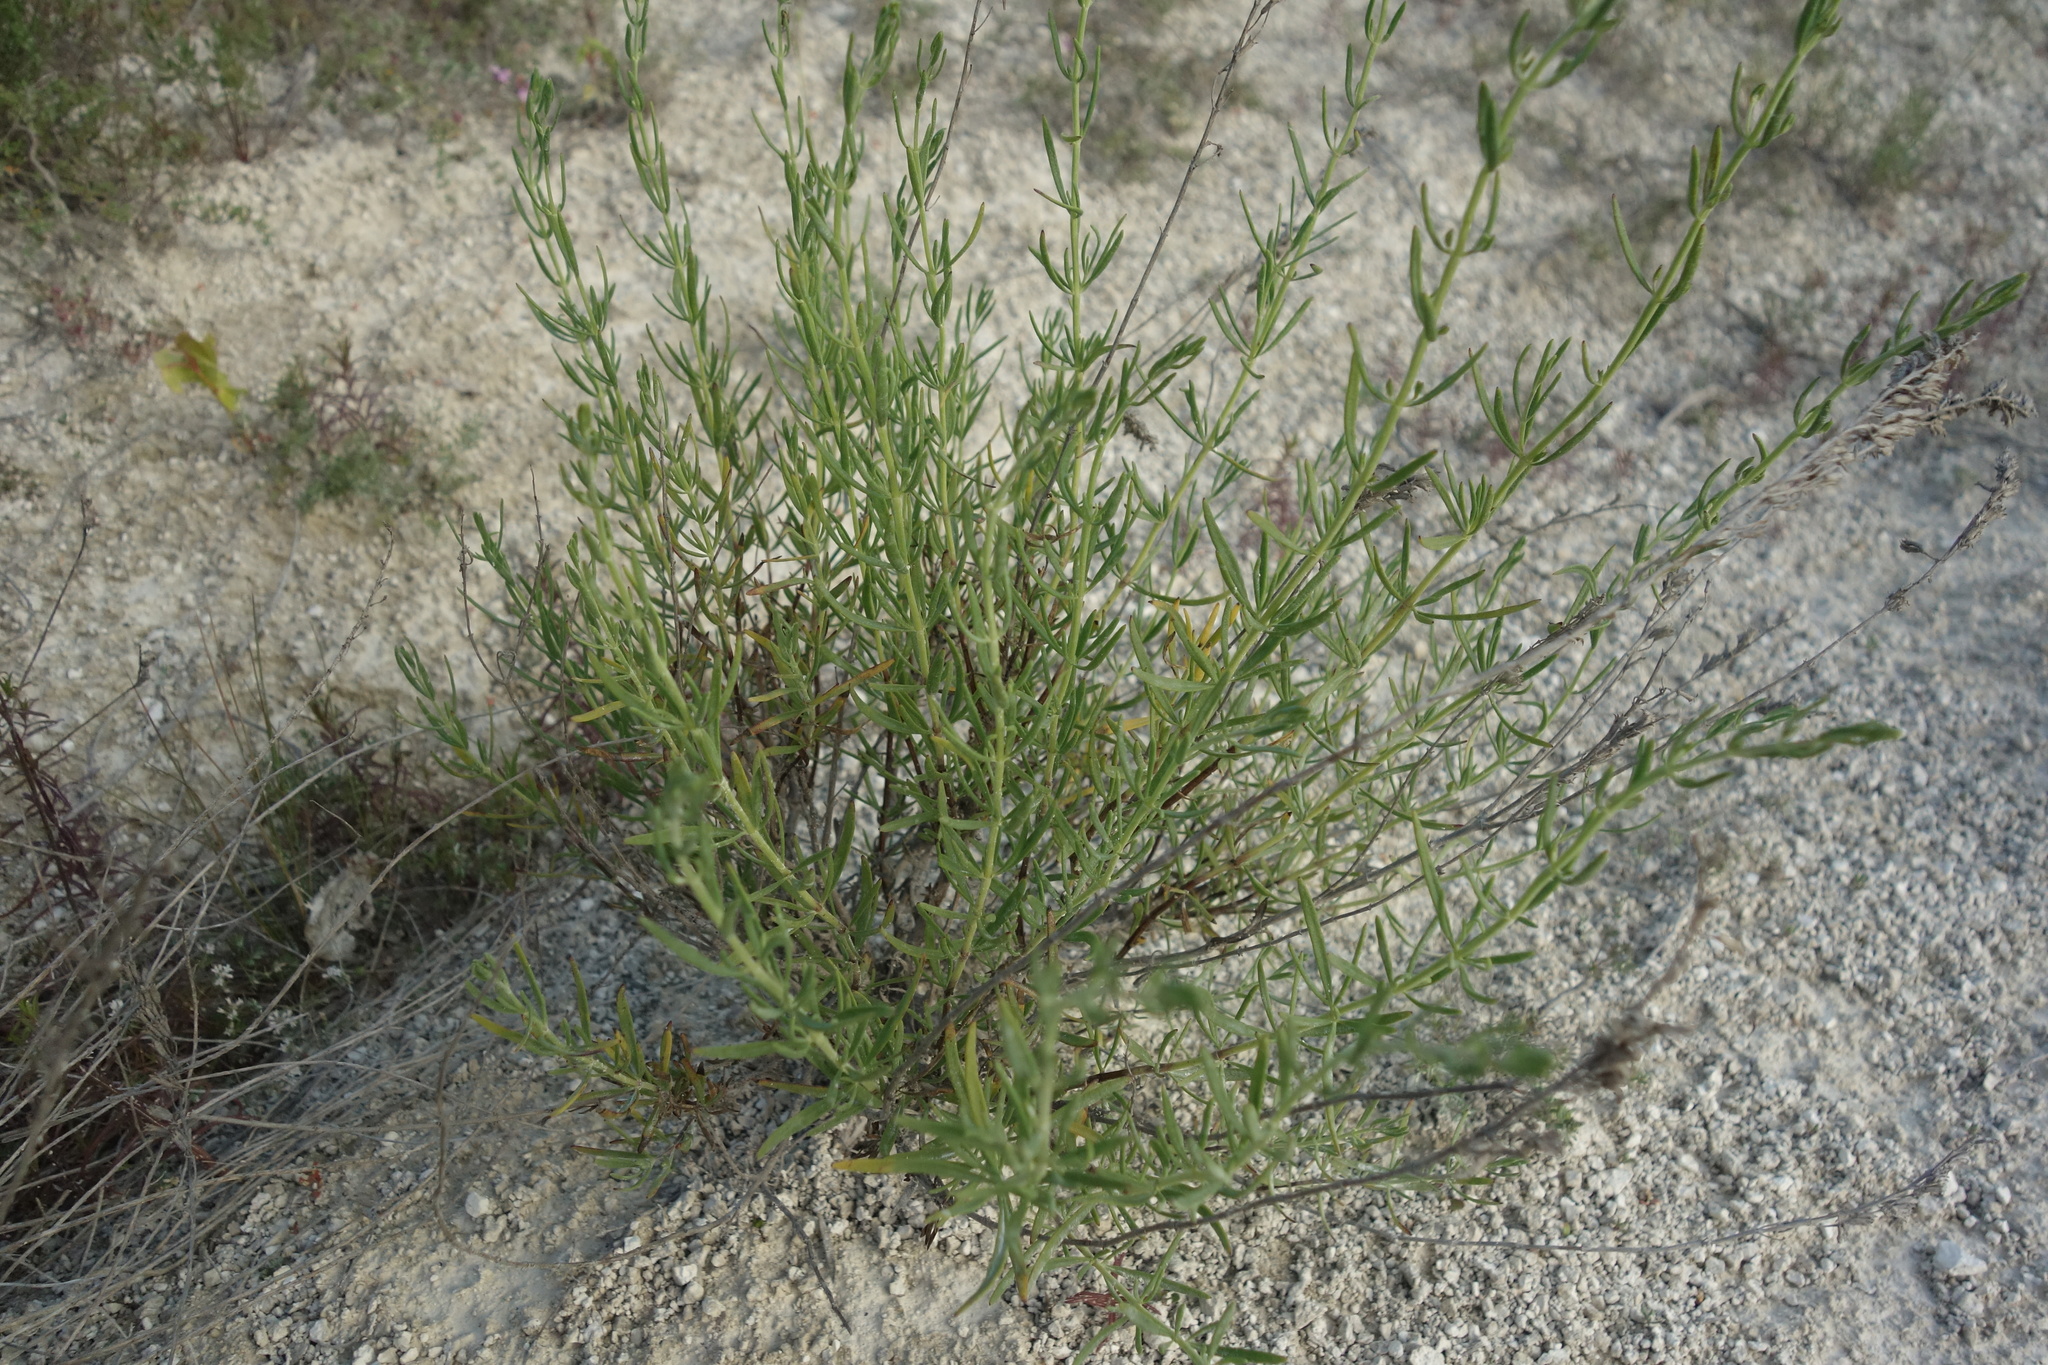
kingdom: Plantae
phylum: Tracheophyta
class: Magnoliopsida
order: Lamiales
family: Lamiaceae
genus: Hyssopus
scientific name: Hyssopus officinalis
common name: Hyssop
